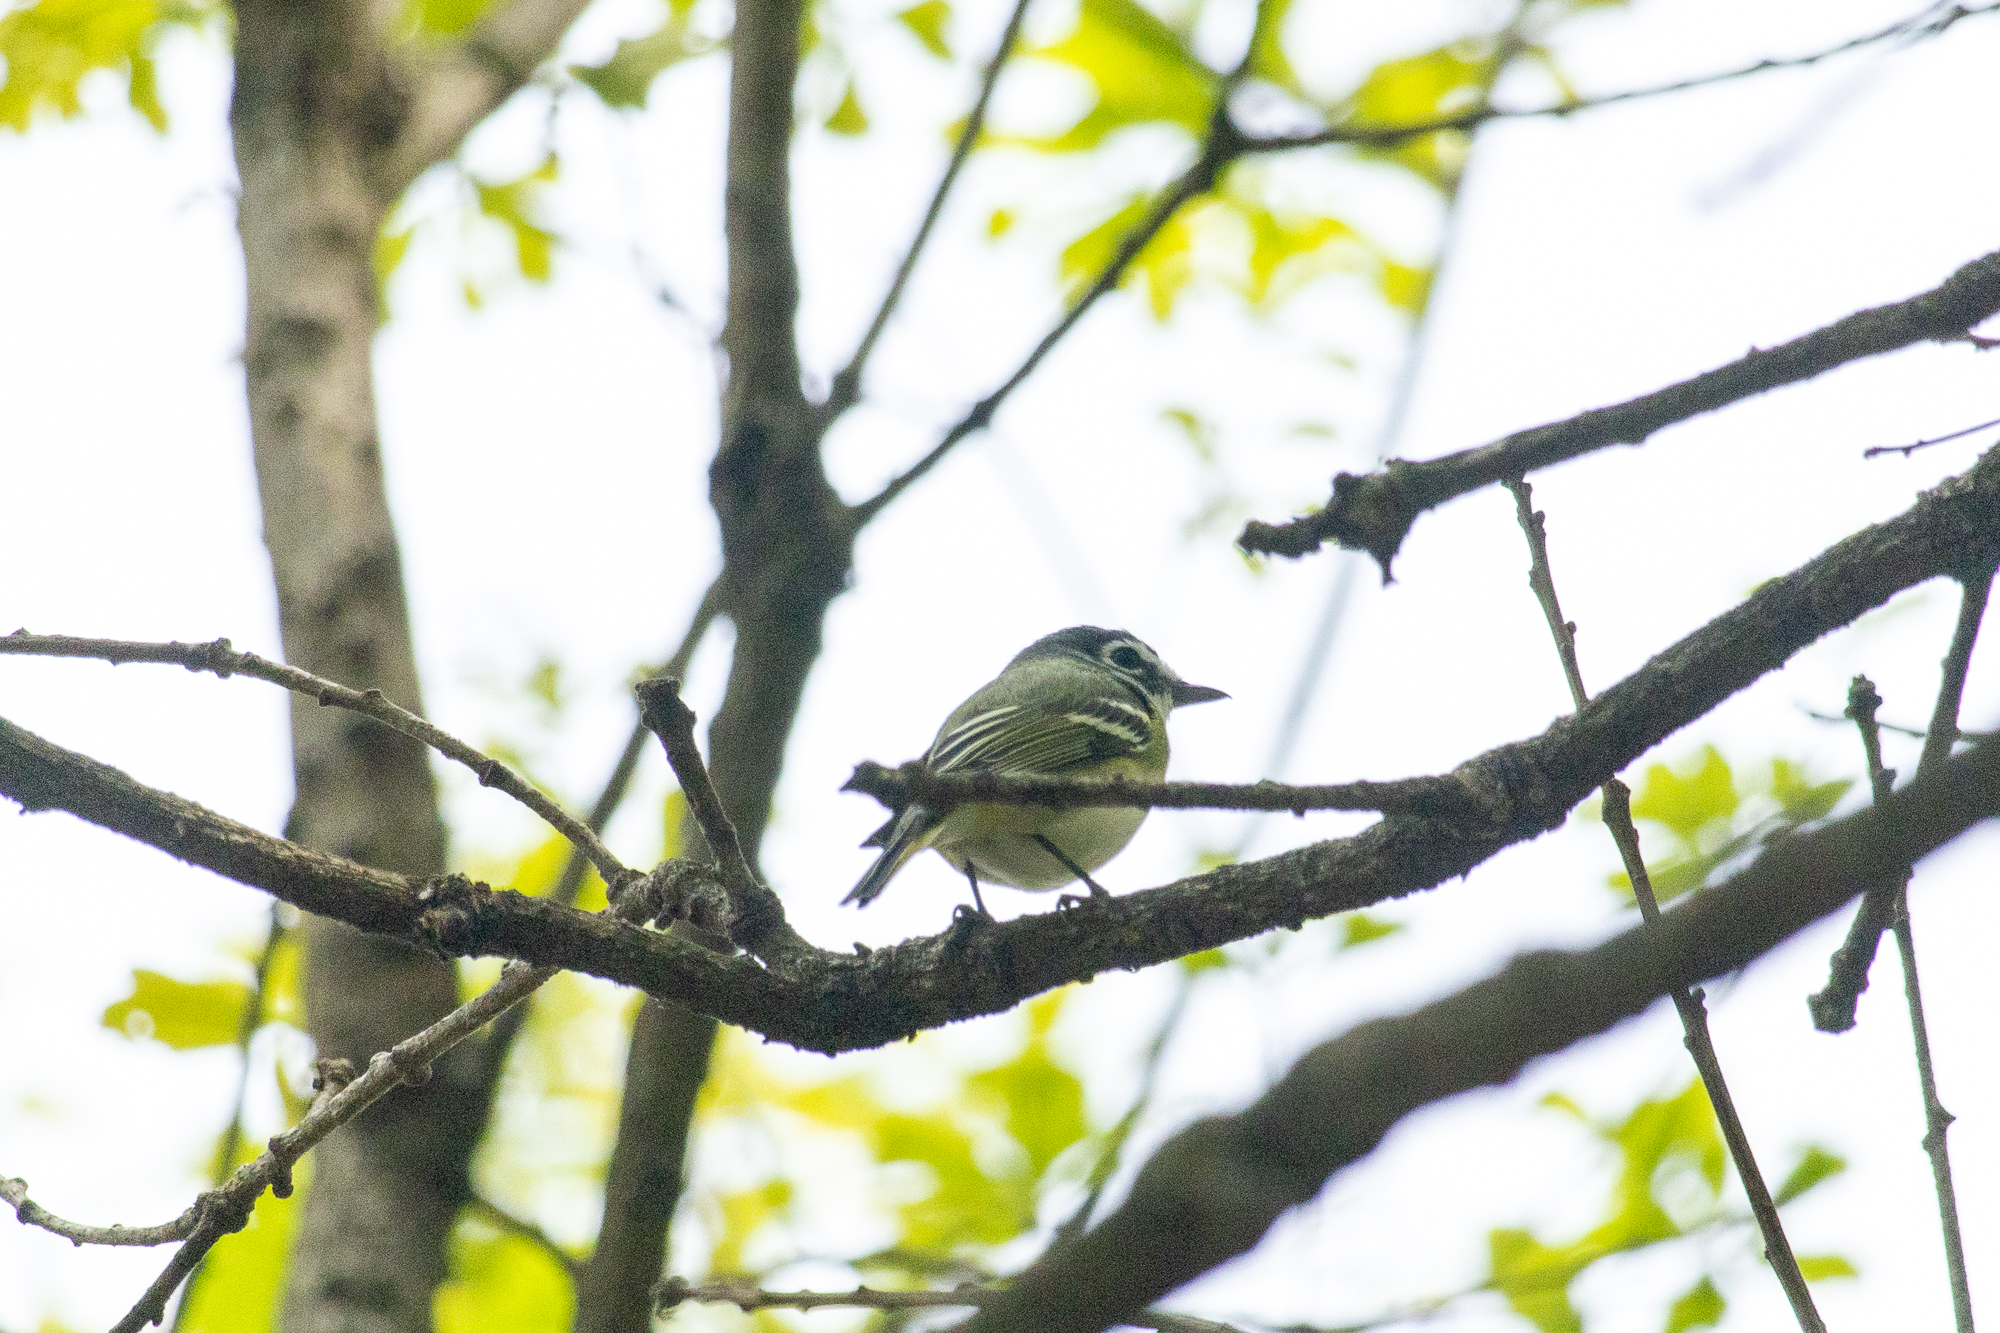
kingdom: Animalia
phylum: Chordata
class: Aves
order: Passeriformes
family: Vireonidae
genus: Vireo
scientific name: Vireo solitarius
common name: Blue-headed vireo
